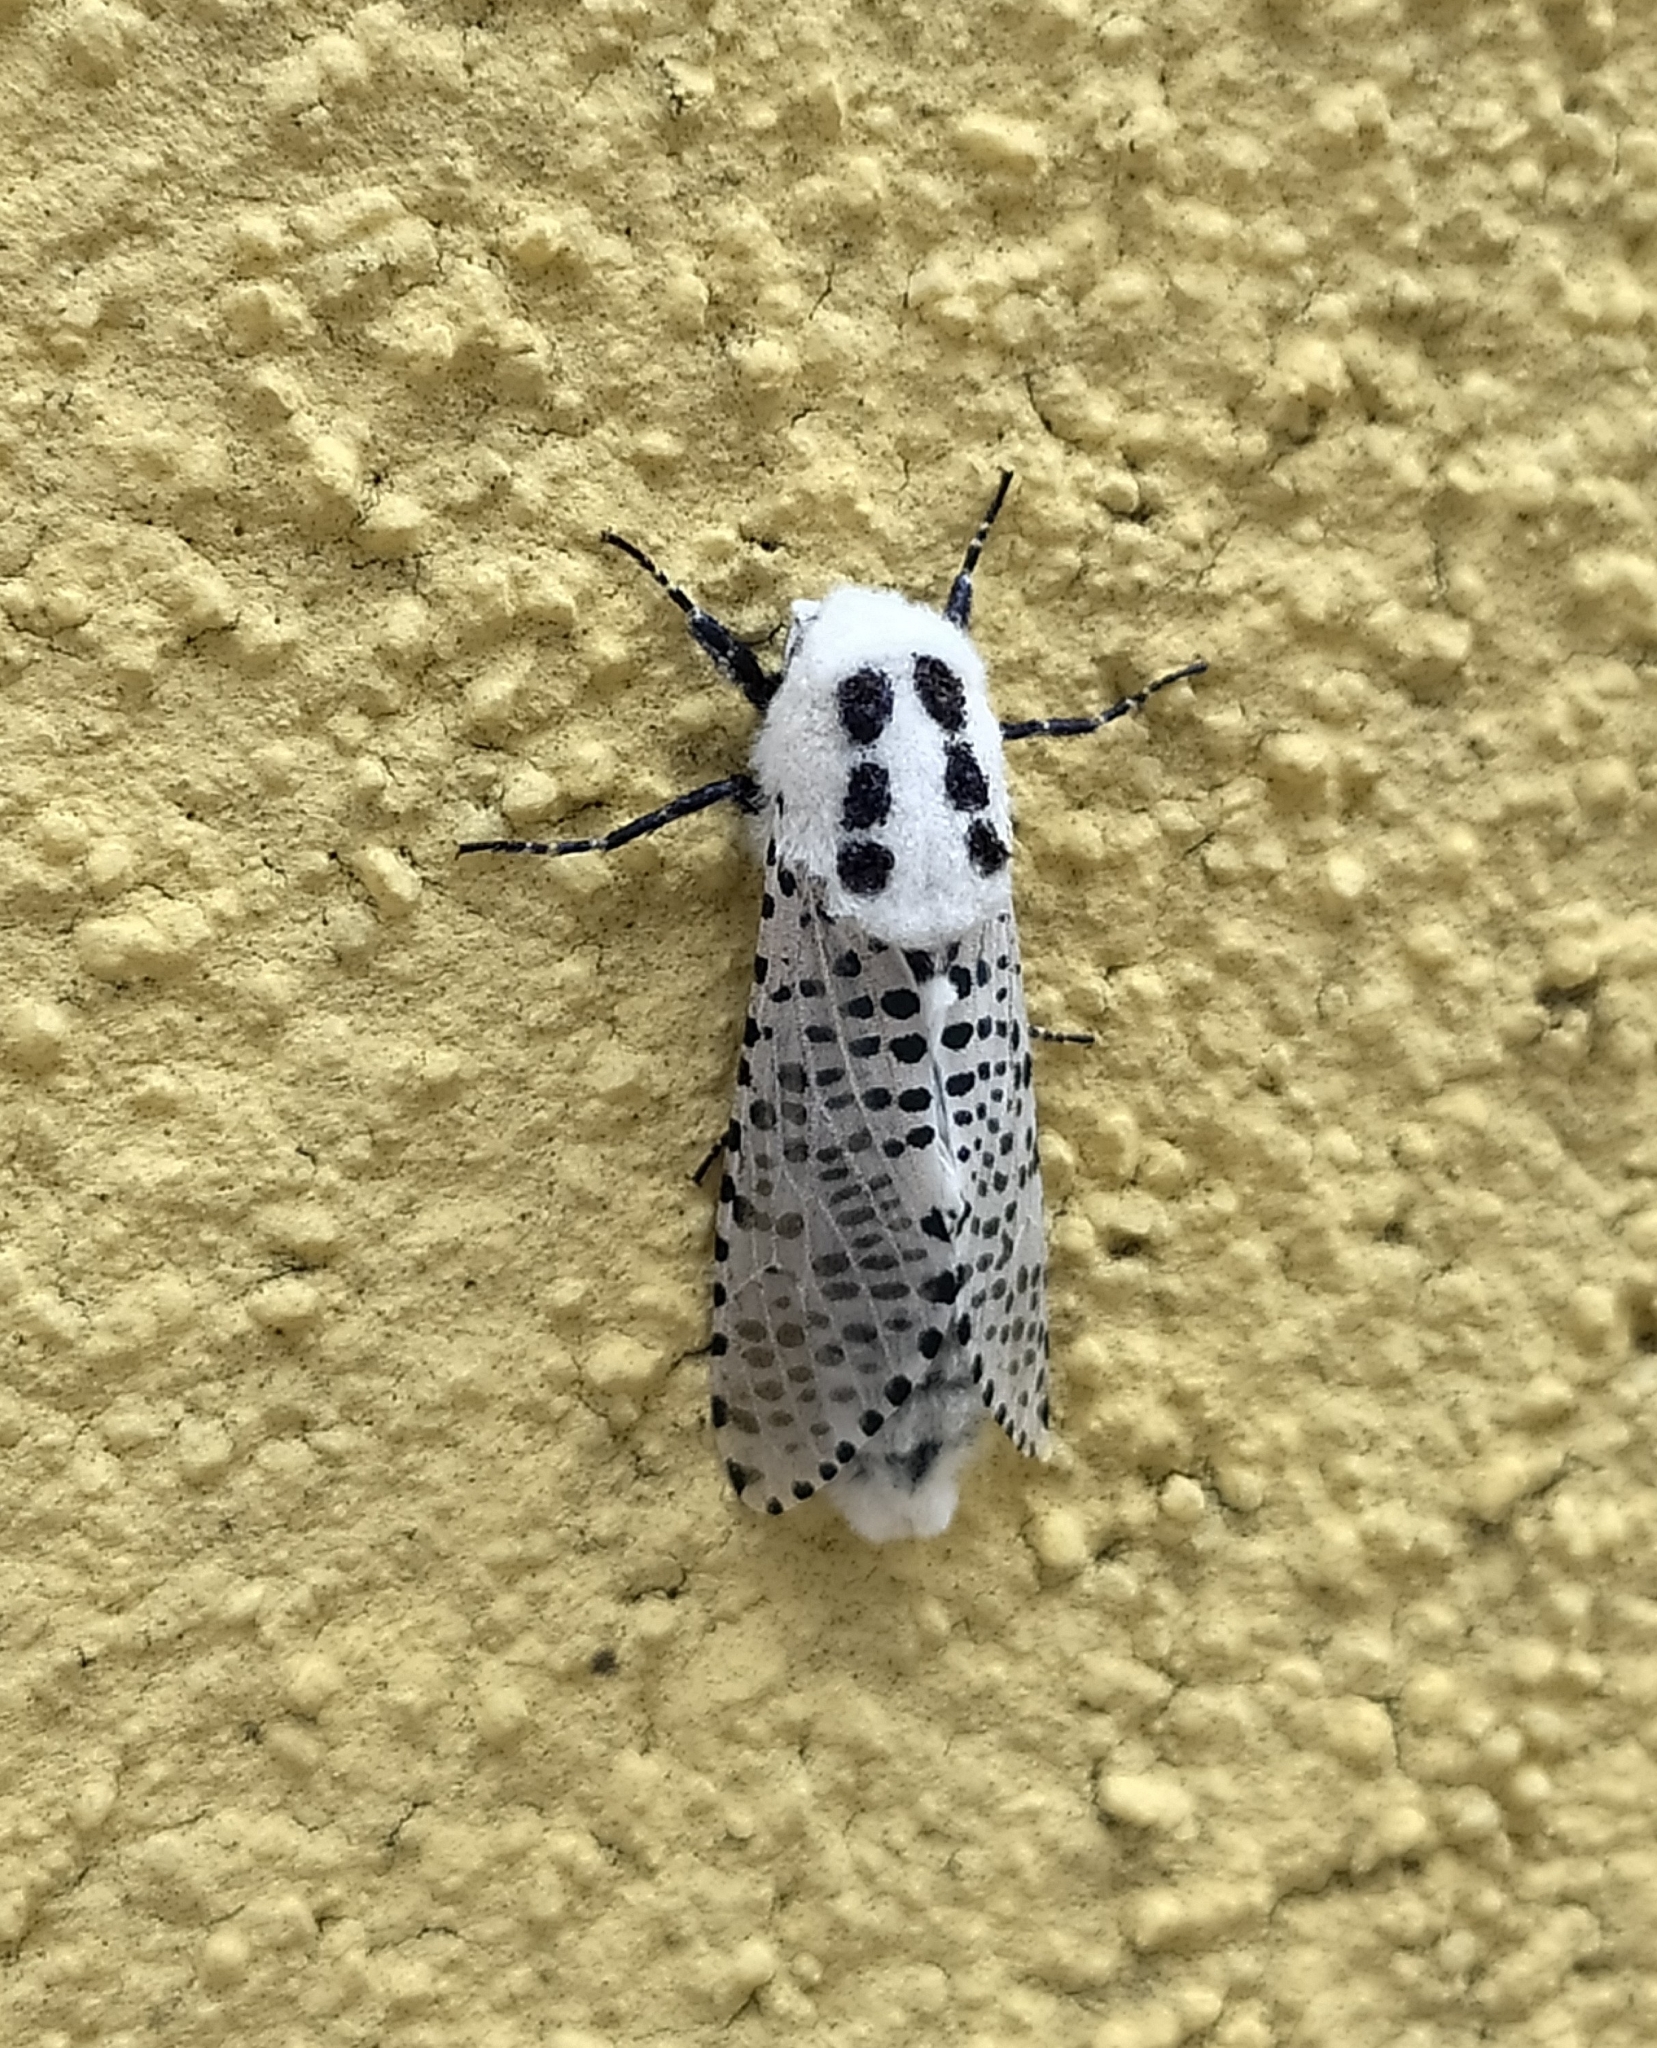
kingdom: Animalia
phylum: Arthropoda
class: Insecta
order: Lepidoptera
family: Cossidae
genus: Zeuzera
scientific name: Zeuzera pyrina
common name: Leopard moth
